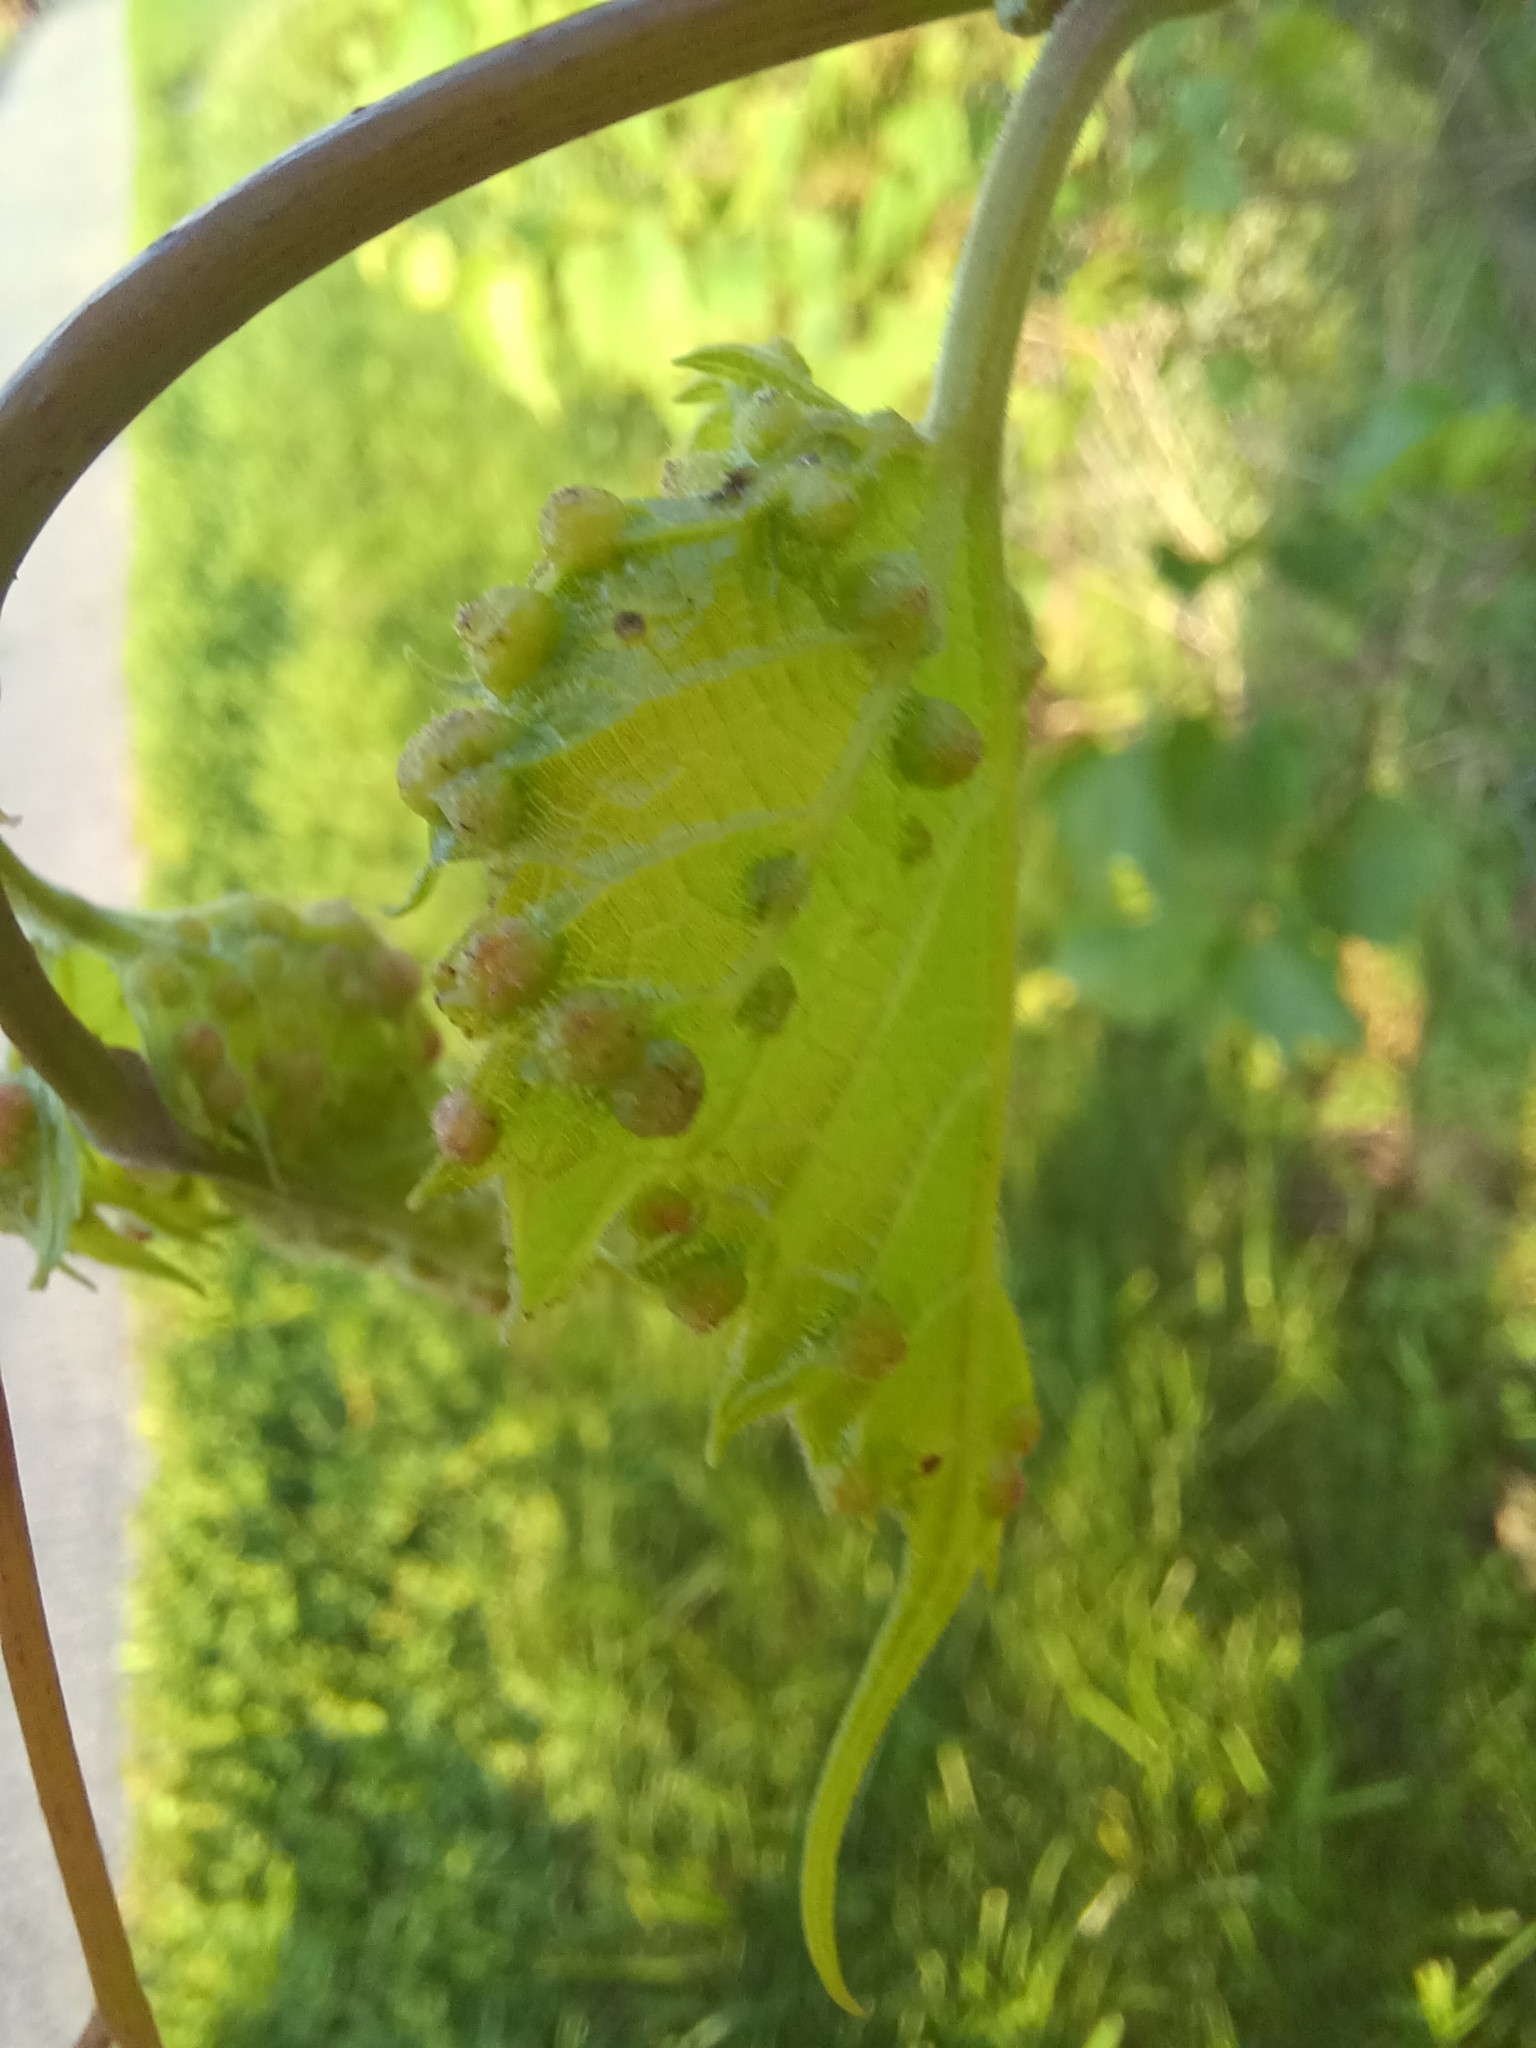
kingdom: Animalia
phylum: Arthropoda
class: Insecta
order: Hemiptera
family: Phylloxeridae
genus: Daktulosphaira
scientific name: Daktulosphaira vitifoliae
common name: Grape phylloxera
